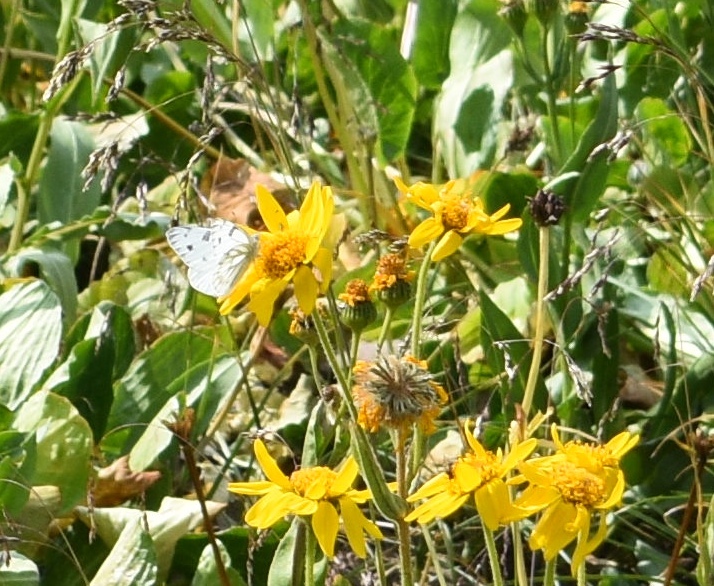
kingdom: Animalia
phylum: Arthropoda
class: Insecta
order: Lepidoptera
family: Pieridae
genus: Pontia
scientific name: Pontia occidentalis
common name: Western white
